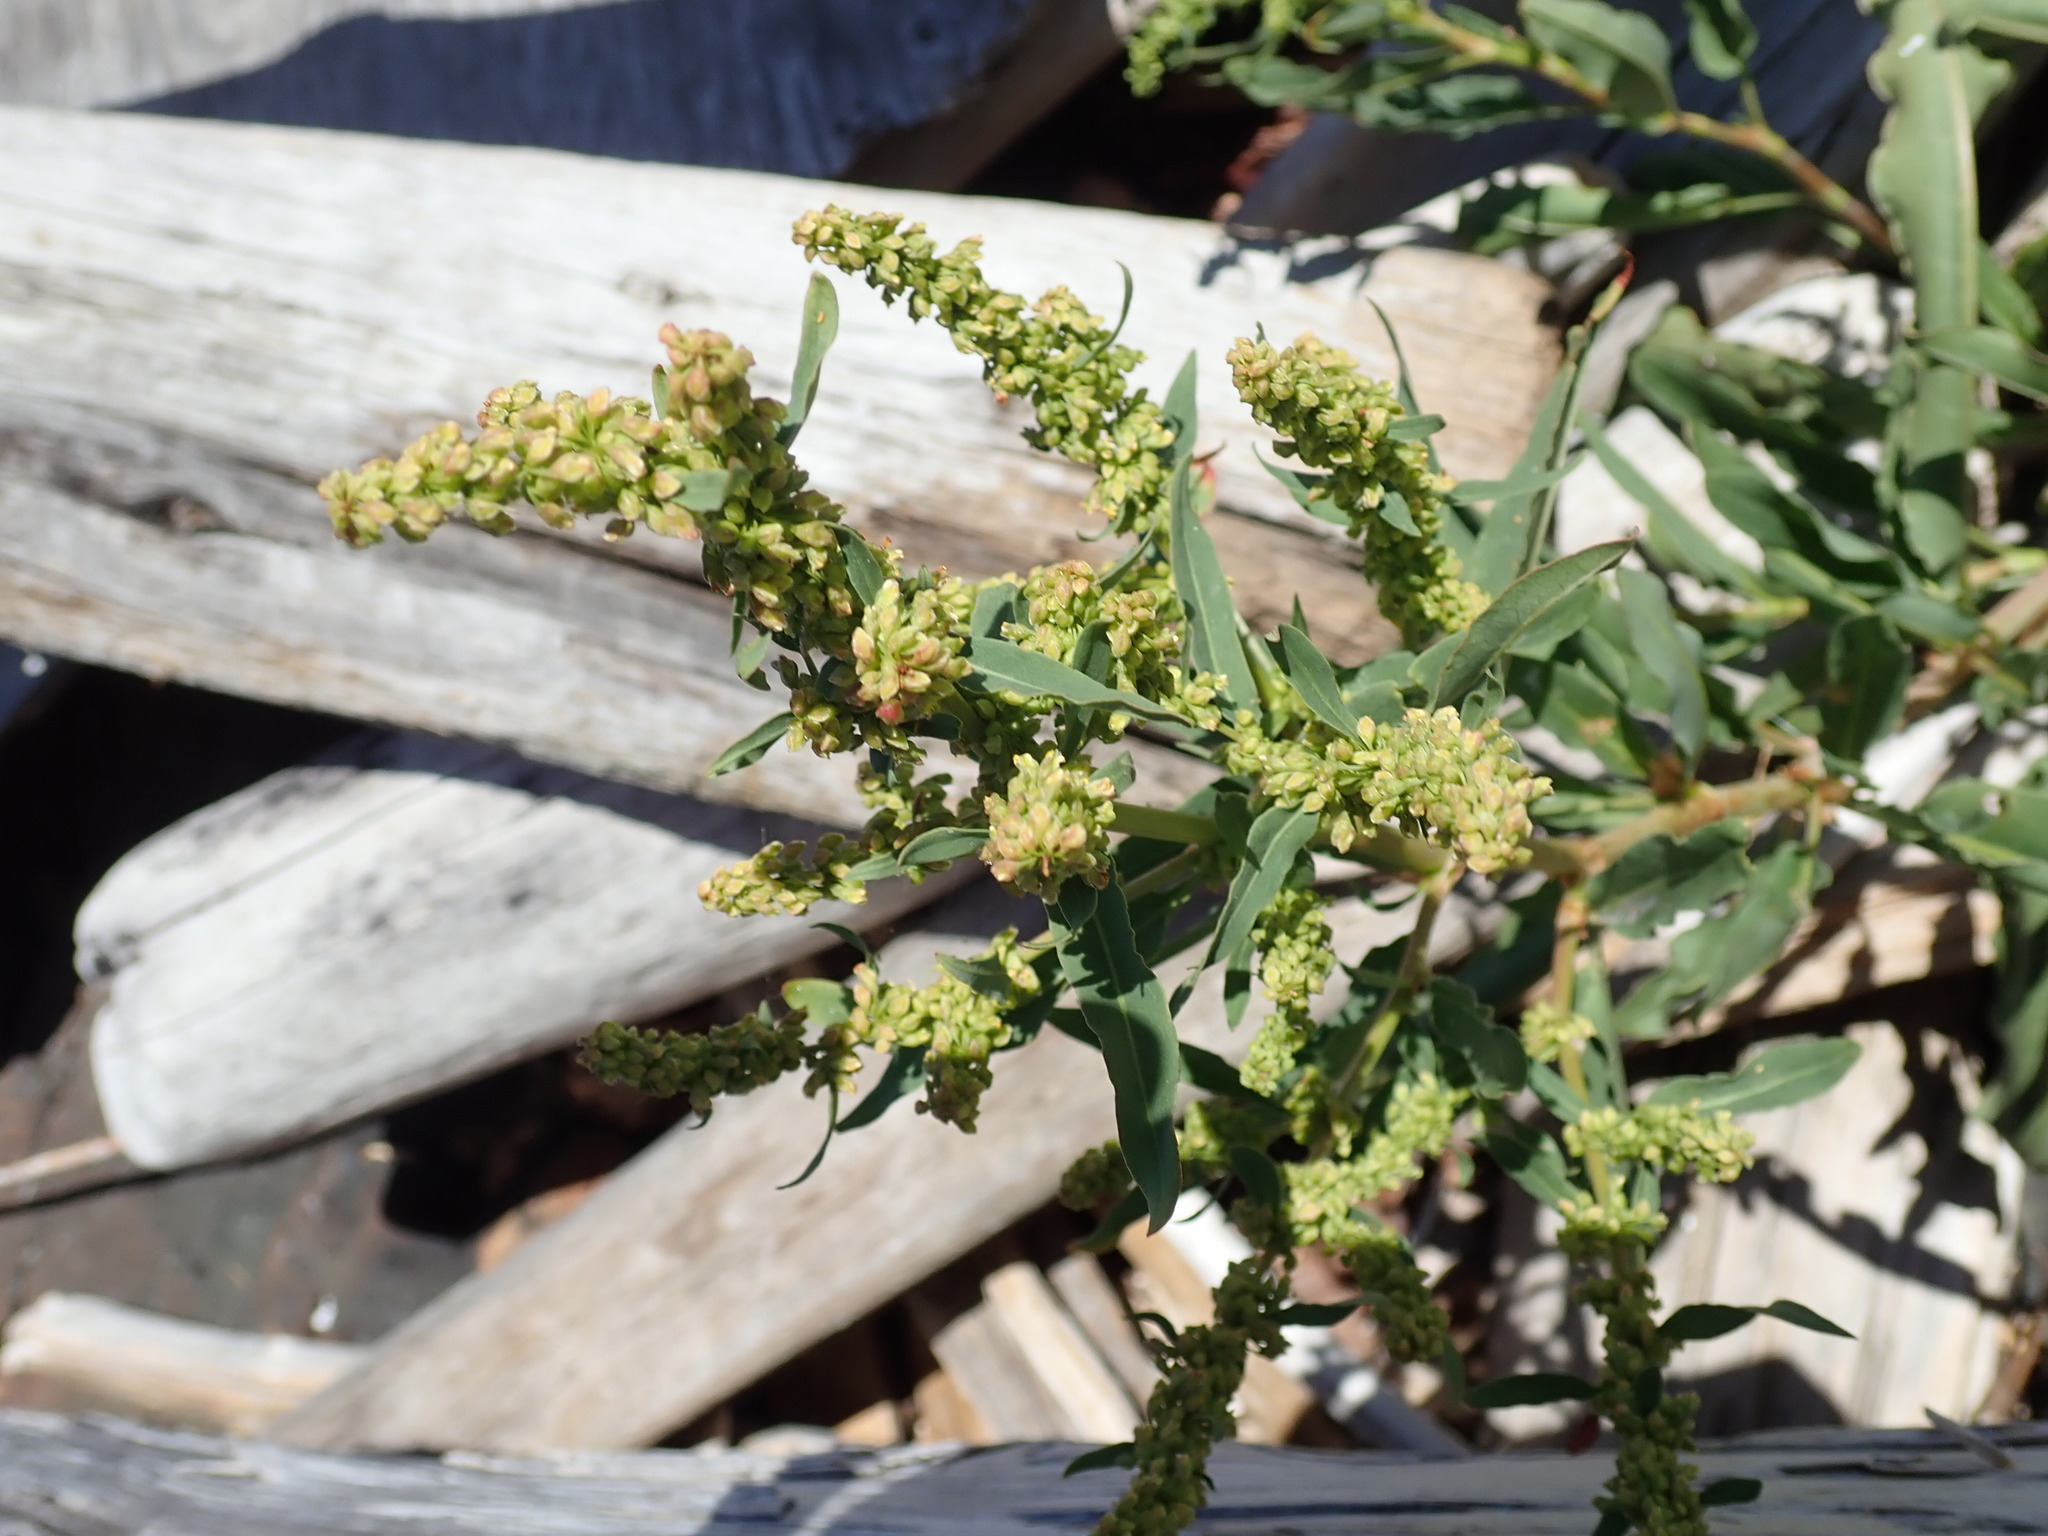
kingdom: Plantae
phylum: Tracheophyta
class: Magnoliopsida
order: Caryophyllales
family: Polygonaceae
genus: Rumex
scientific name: Rumex transitorius
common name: Pacific willow dock
